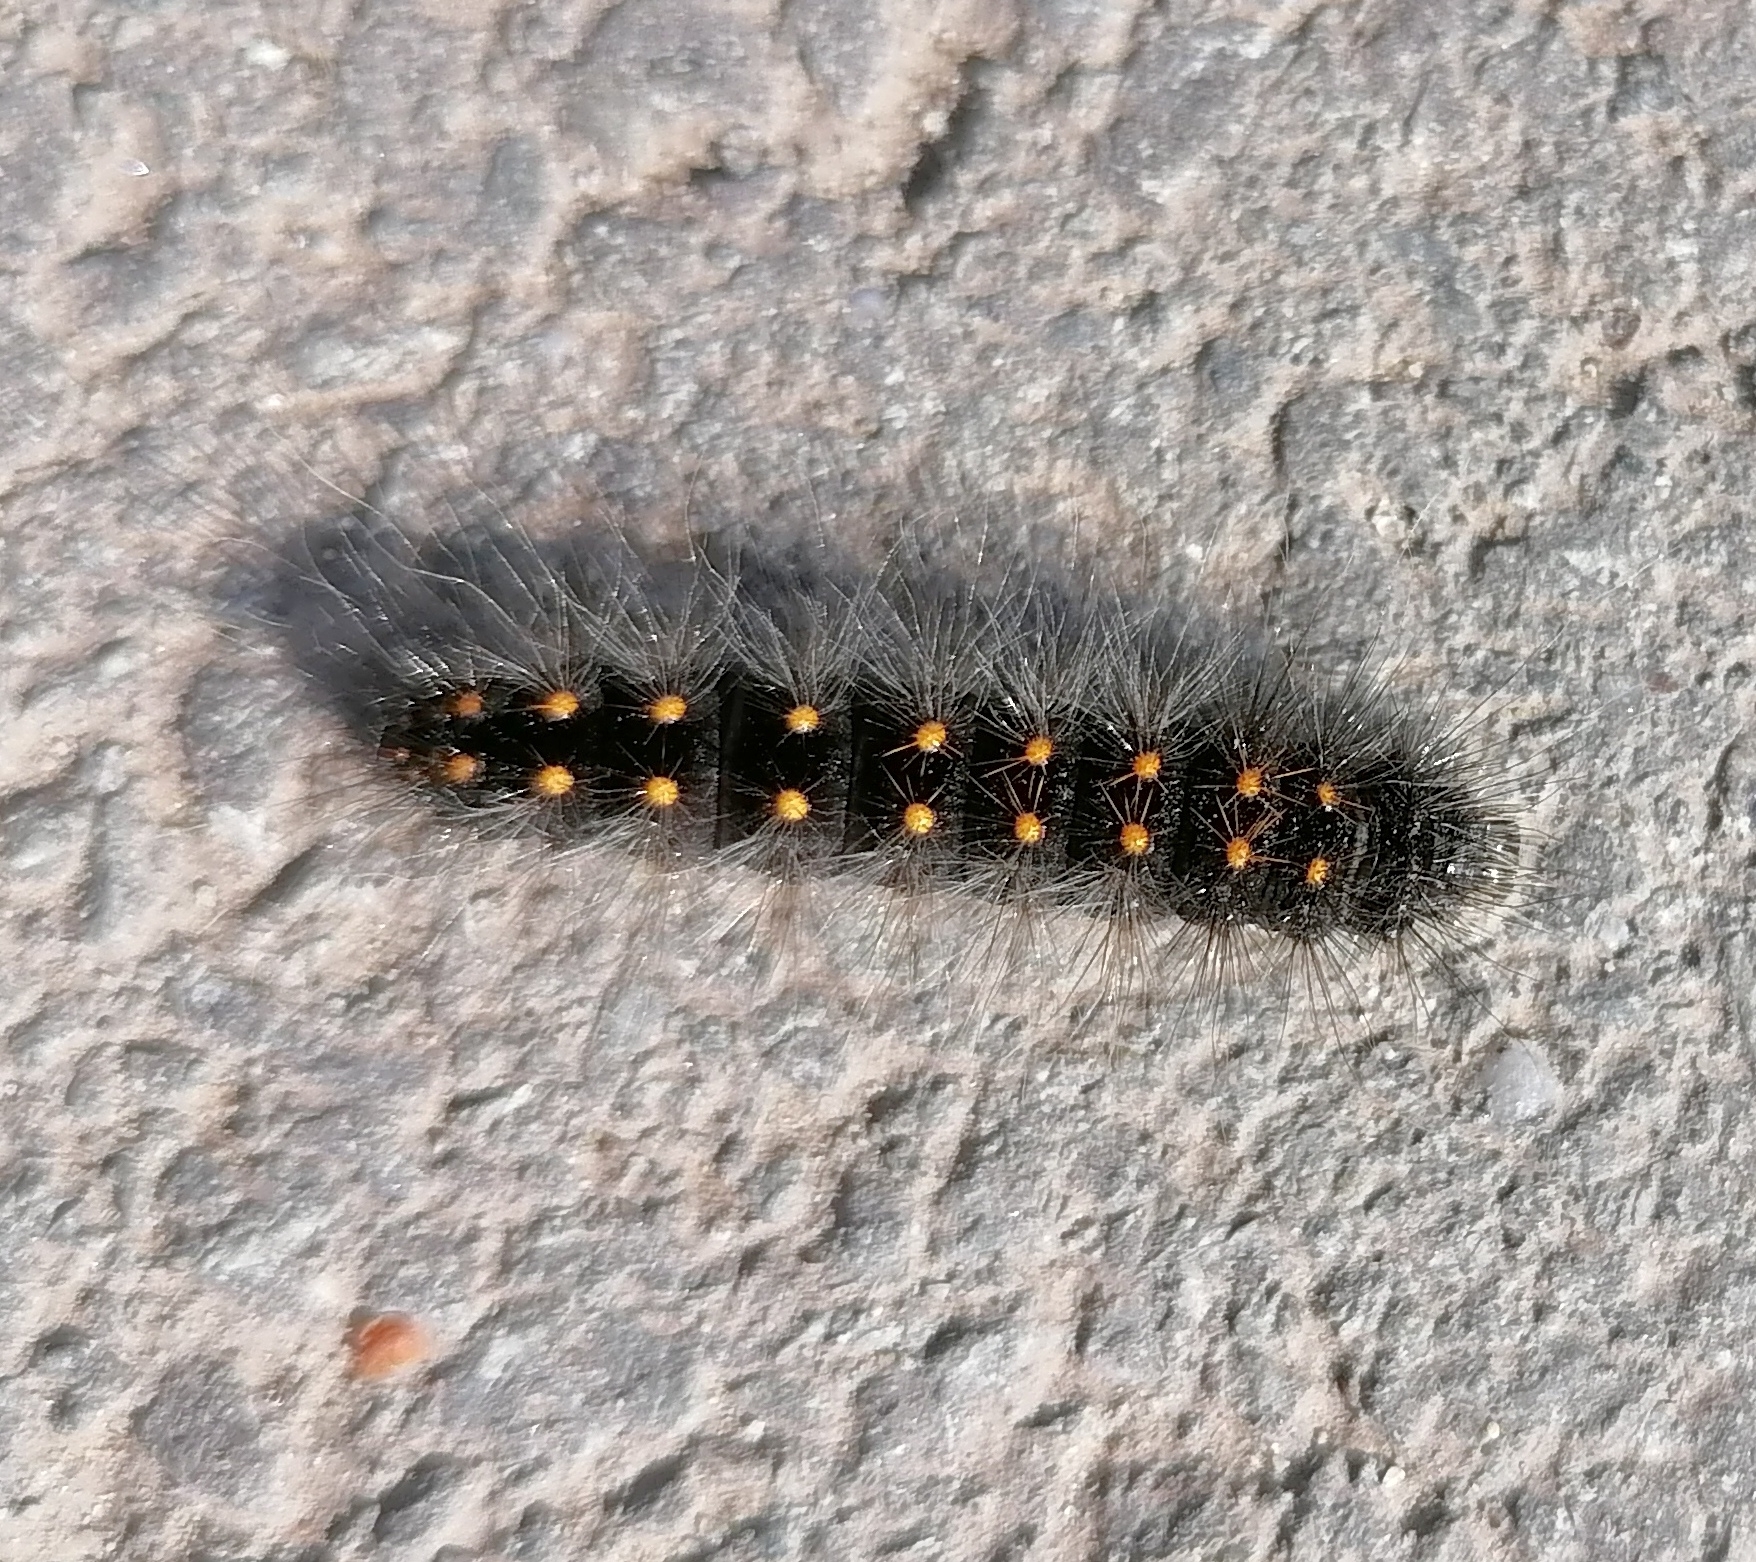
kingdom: Animalia
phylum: Arthropoda
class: Insecta
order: Lepidoptera
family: Noctuidae
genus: Acronicta
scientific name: Acronicta auricoma
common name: Scarce dagger
